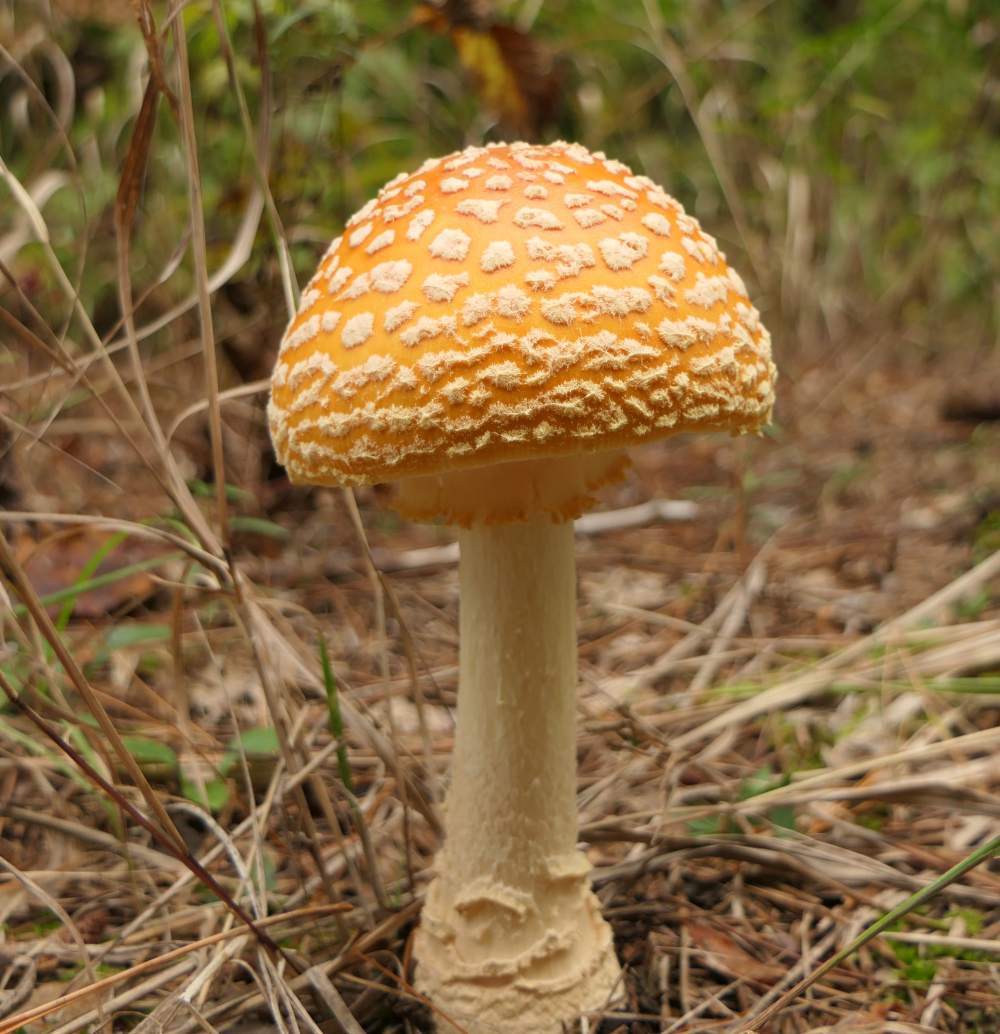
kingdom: Fungi
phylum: Basidiomycota
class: Agaricomycetes
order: Agaricales
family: Amanitaceae
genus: Amanita
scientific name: Amanita muscaria
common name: Fly agaric
